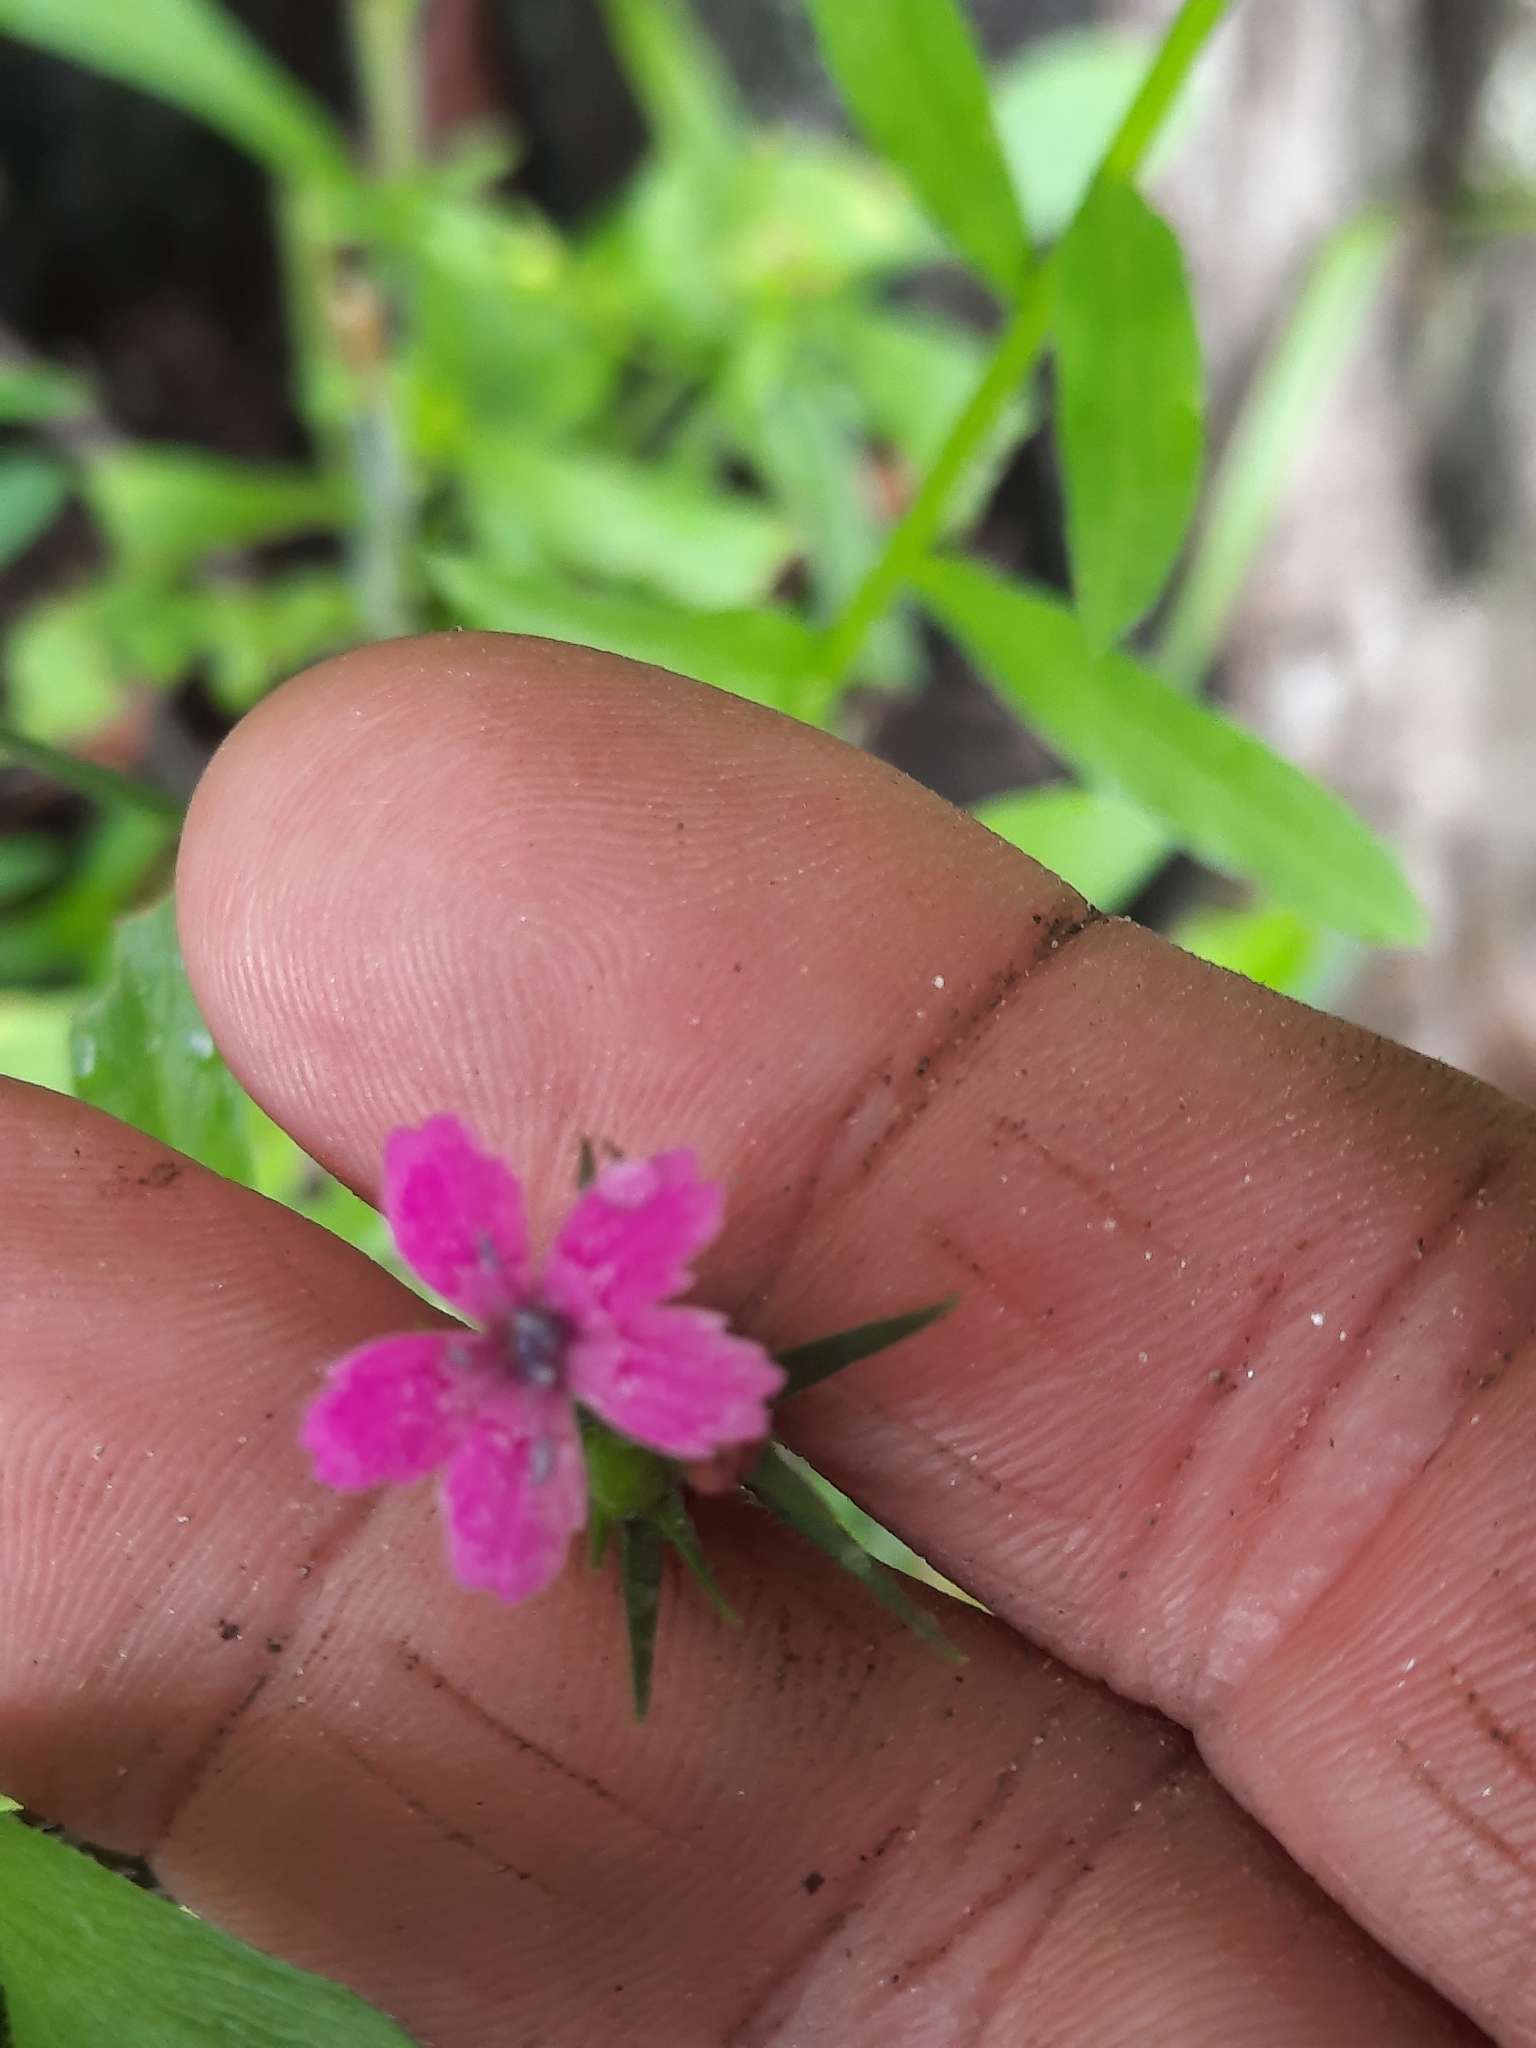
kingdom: Plantae
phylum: Tracheophyta
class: Magnoliopsida
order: Caryophyllales
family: Caryophyllaceae
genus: Dianthus
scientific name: Dianthus armeria
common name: Deptford pink
